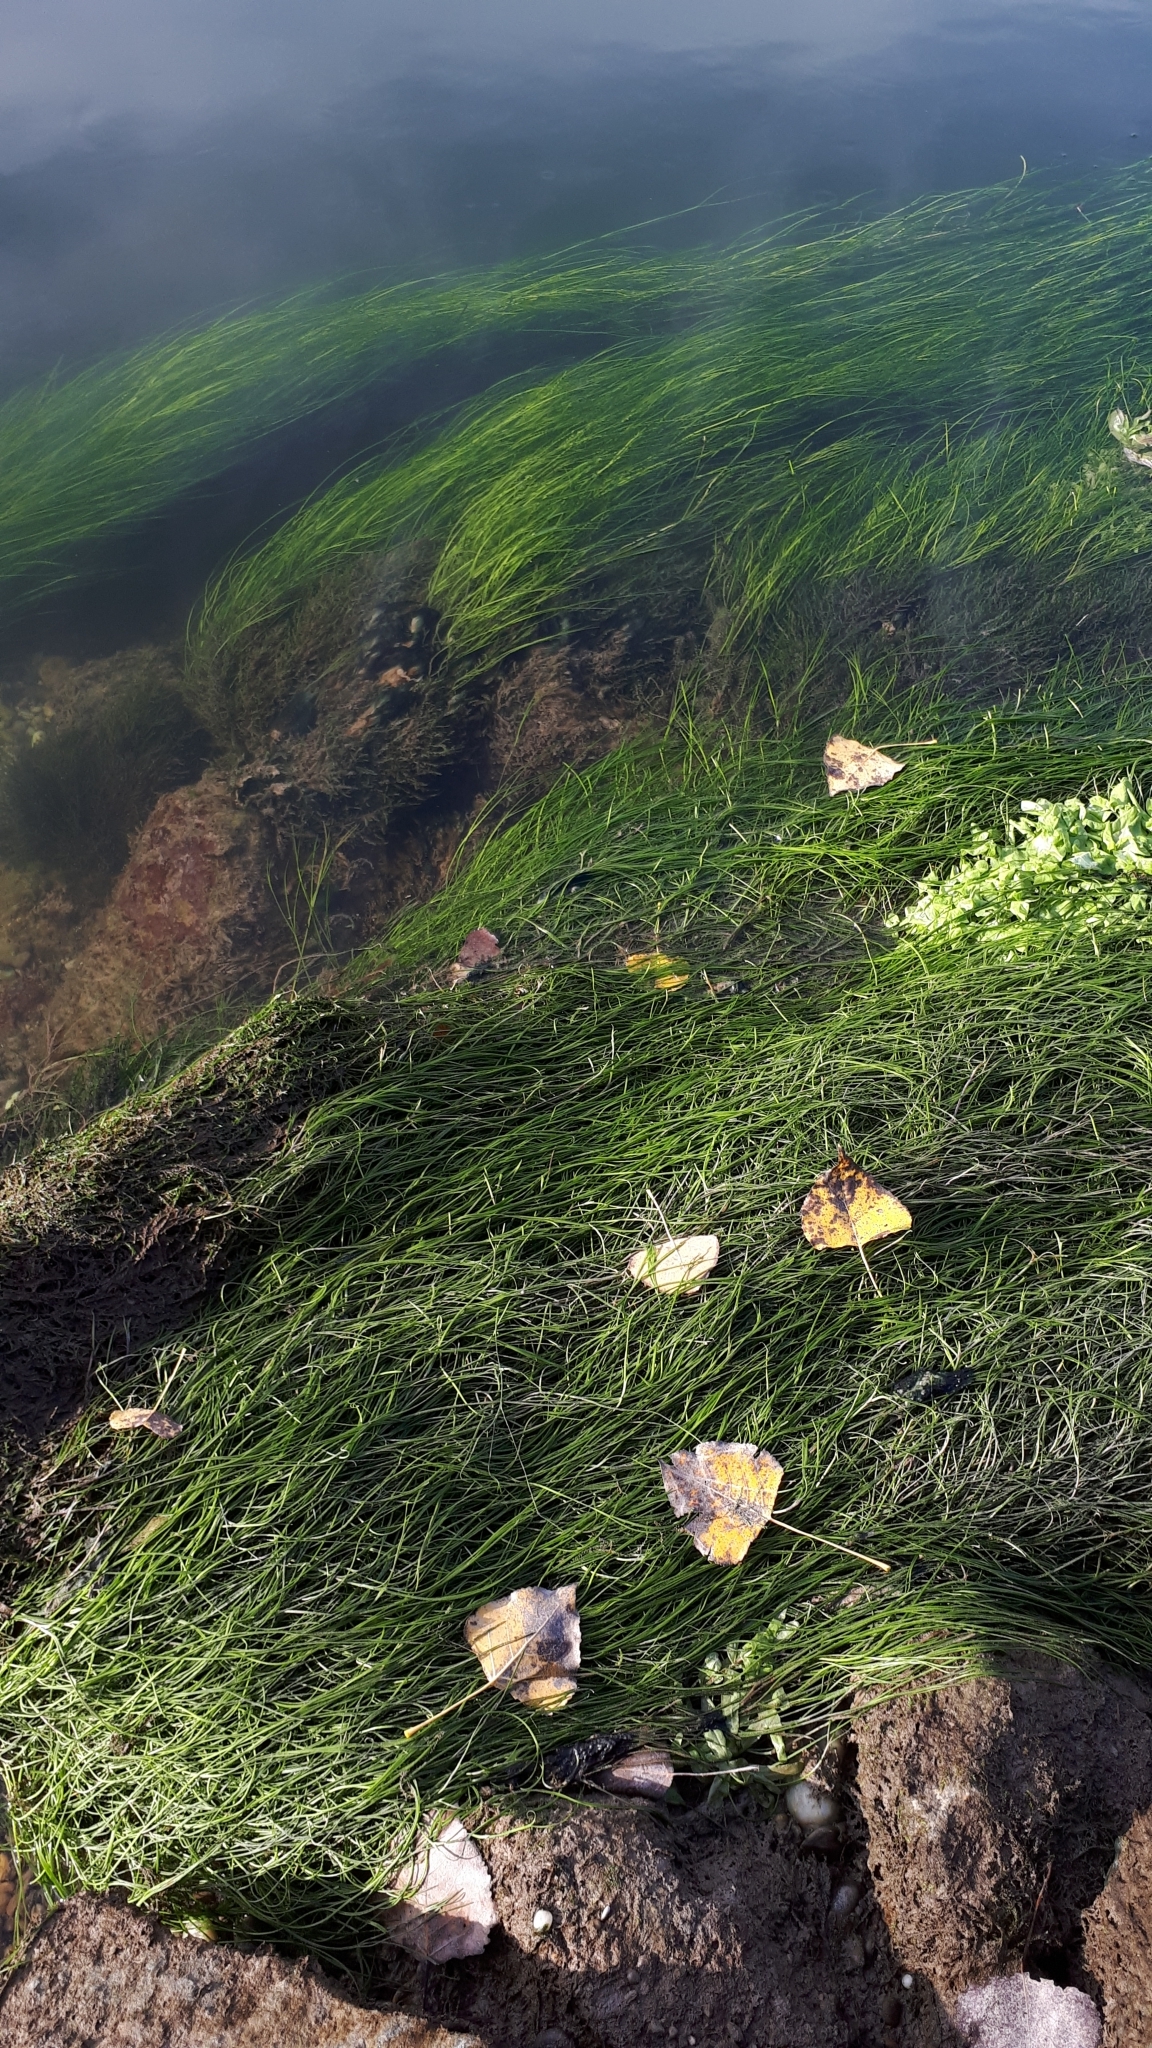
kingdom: Plantae
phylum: Tracheophyta
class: Magnoliopsida
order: Ranunculales
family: Ranunculaceae
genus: Ranunculus
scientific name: Ranunculus fluitans
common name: River water-crowfoot
